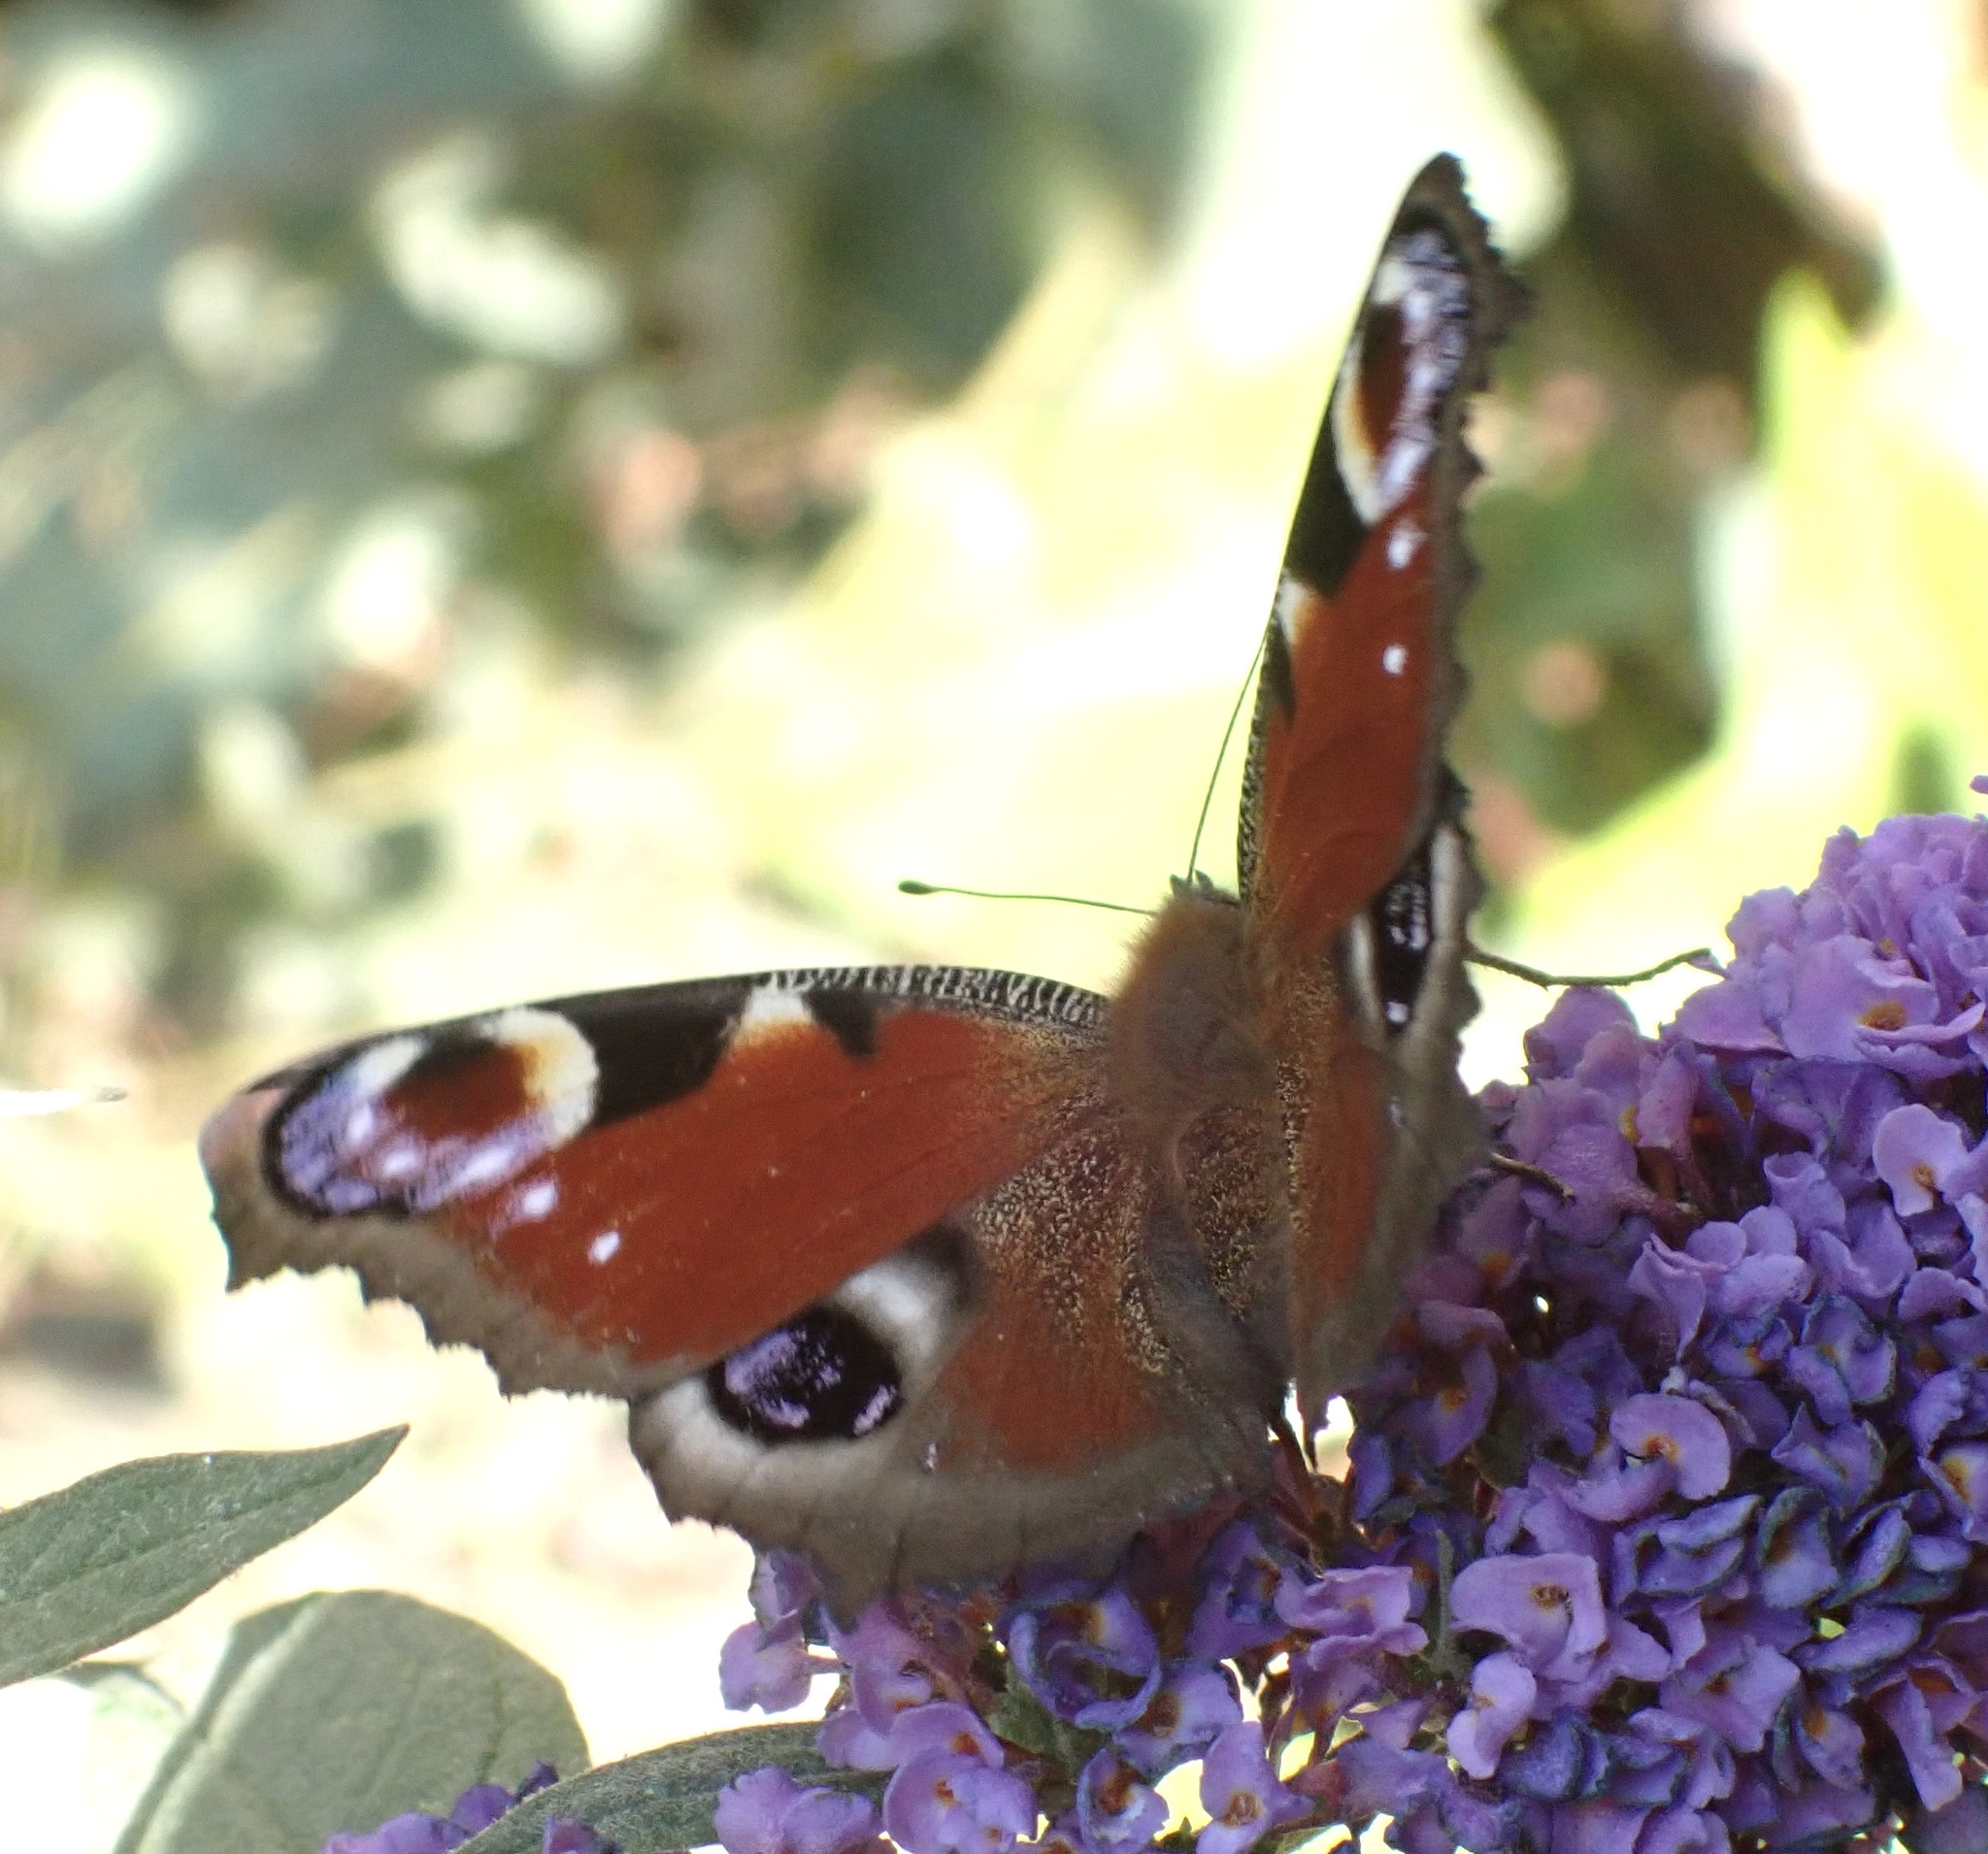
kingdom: Animalia
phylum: Arthropoda
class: Insecta
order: Lepidoptera
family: Nymphalidae
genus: Aglais
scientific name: Aglais io
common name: Peacock
